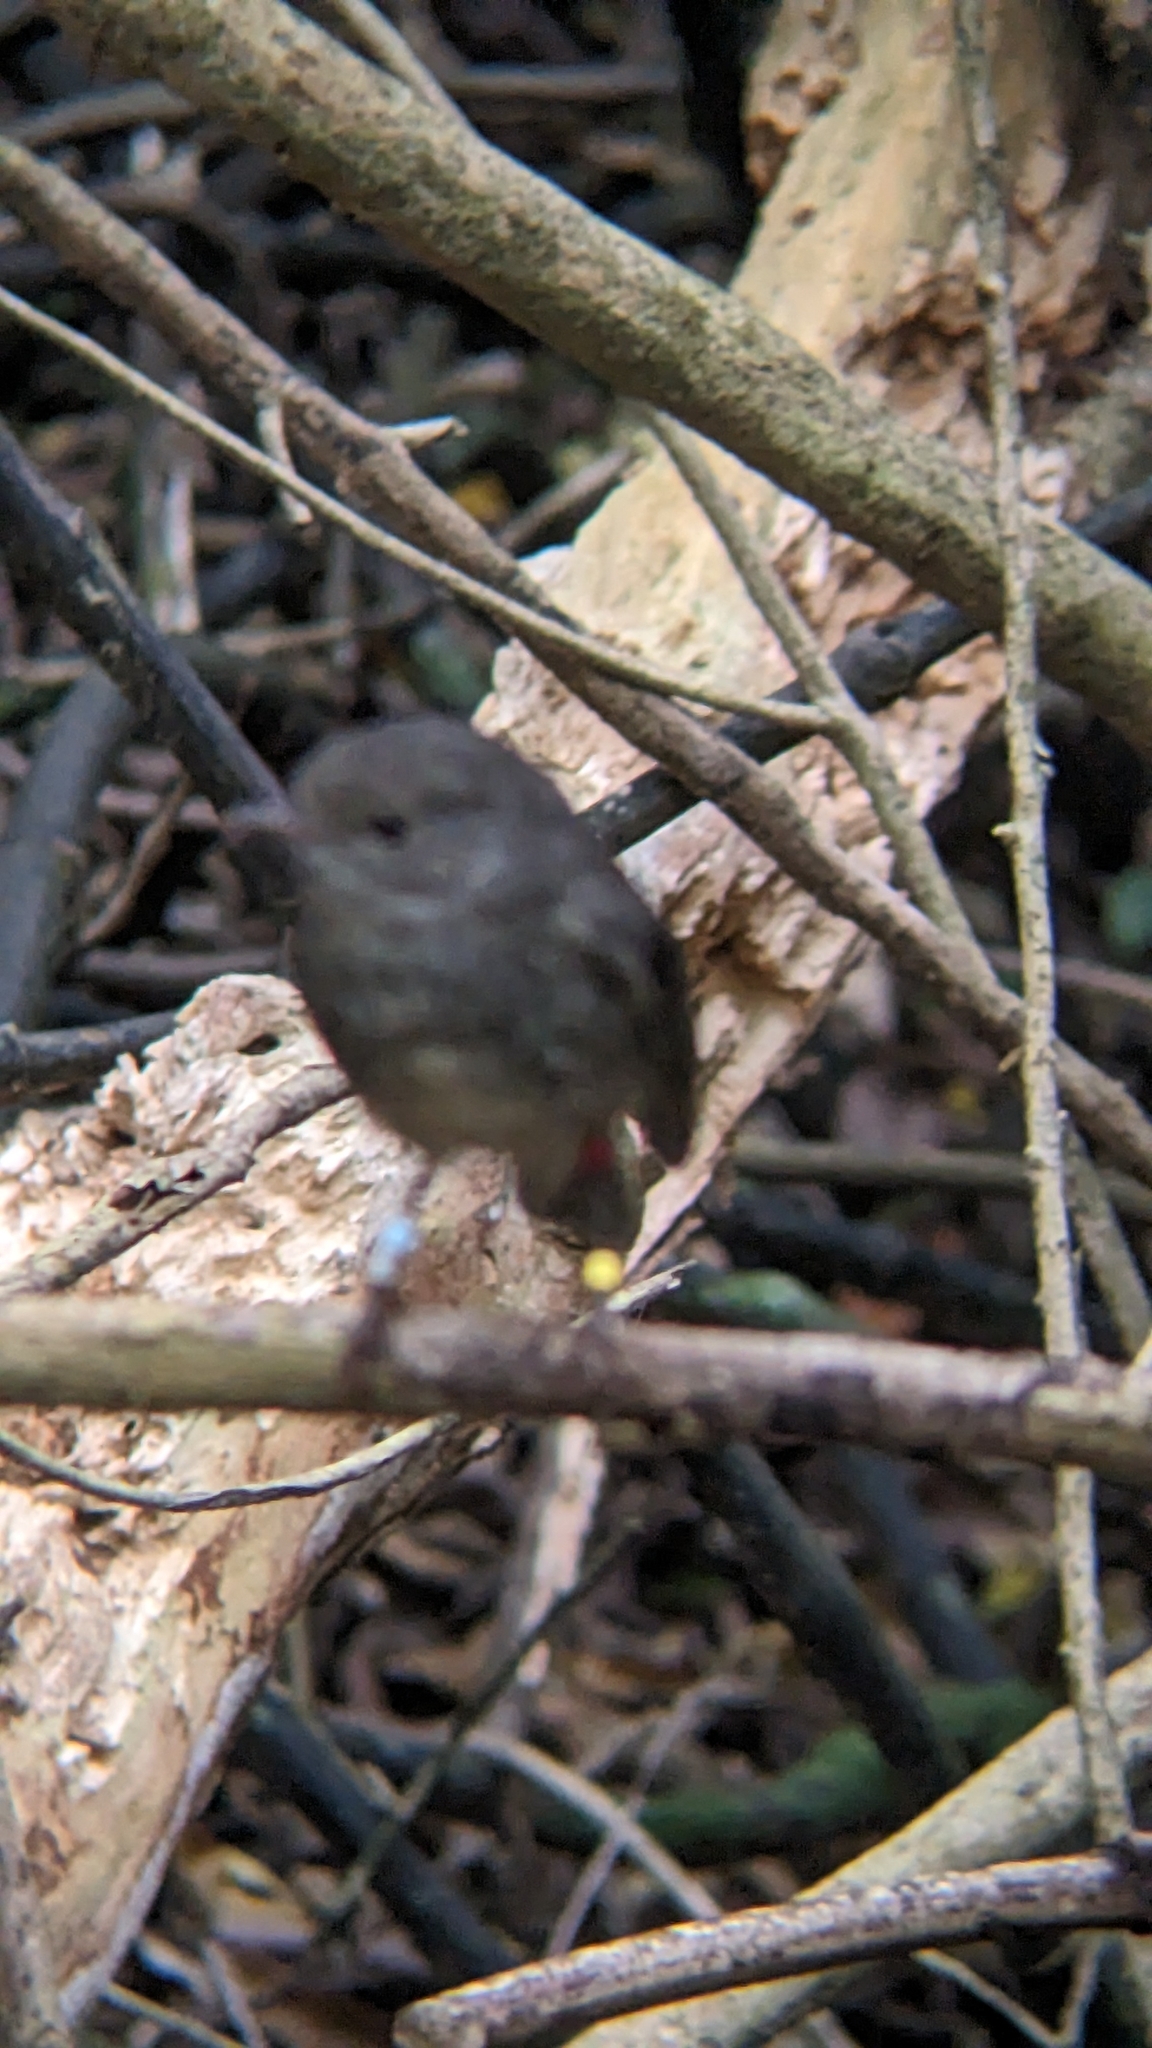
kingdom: Animalia
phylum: Chordata
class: Aves
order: Passeriformes
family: Petroicidae
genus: Petroica
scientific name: Petroica australis
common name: New zealand robin
